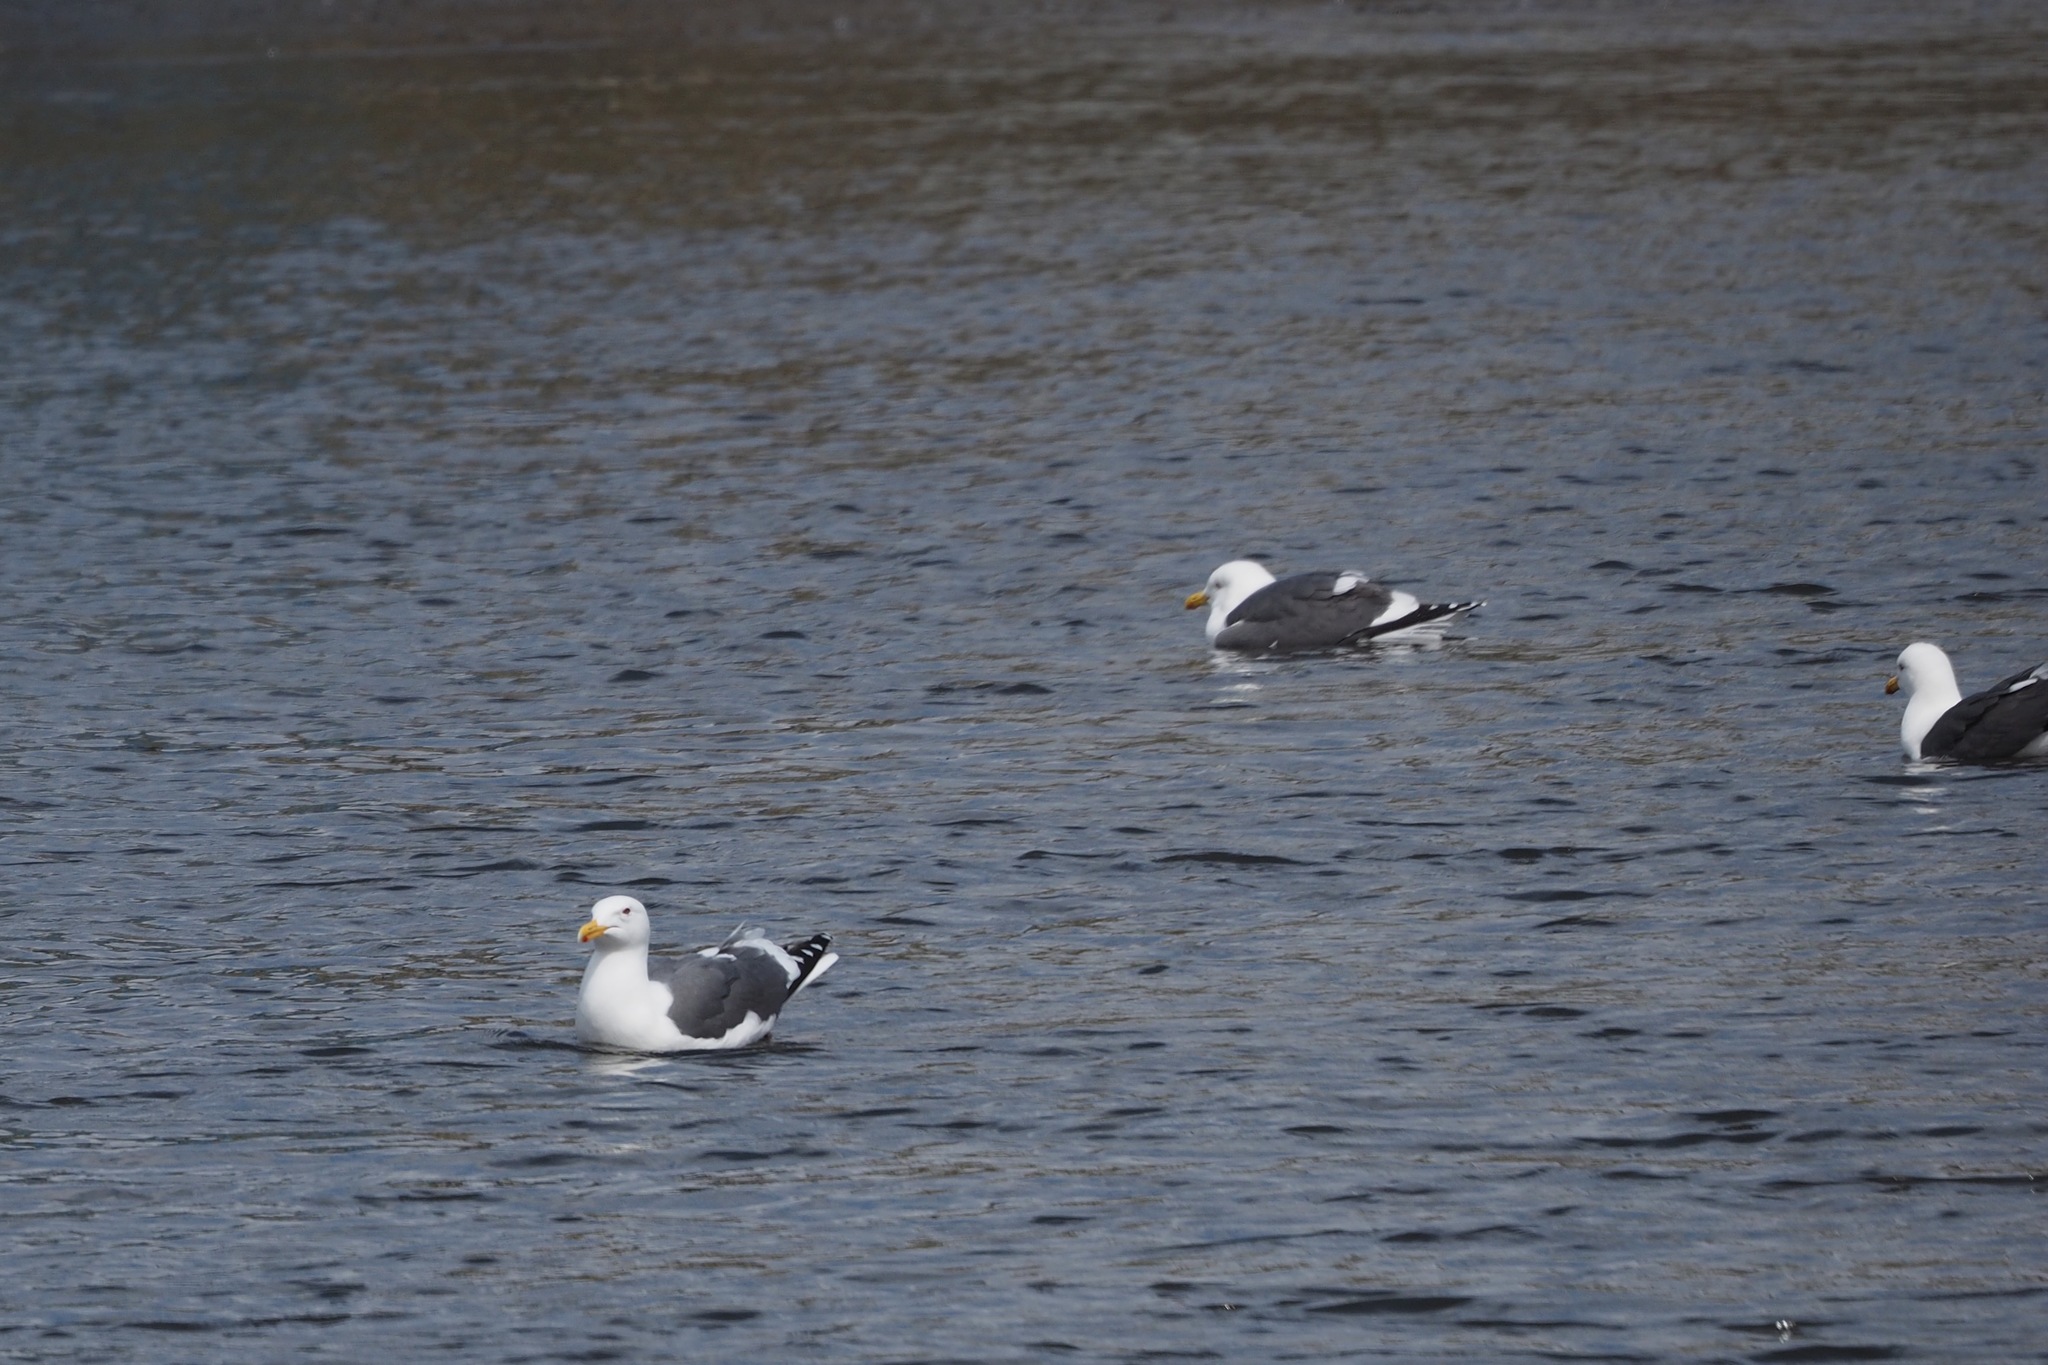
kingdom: Animalia
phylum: Chordata
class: Aves
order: Charadriiformes
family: Laridae
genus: Larus
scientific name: Larus schistisagus
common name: Slaty-backed gull
